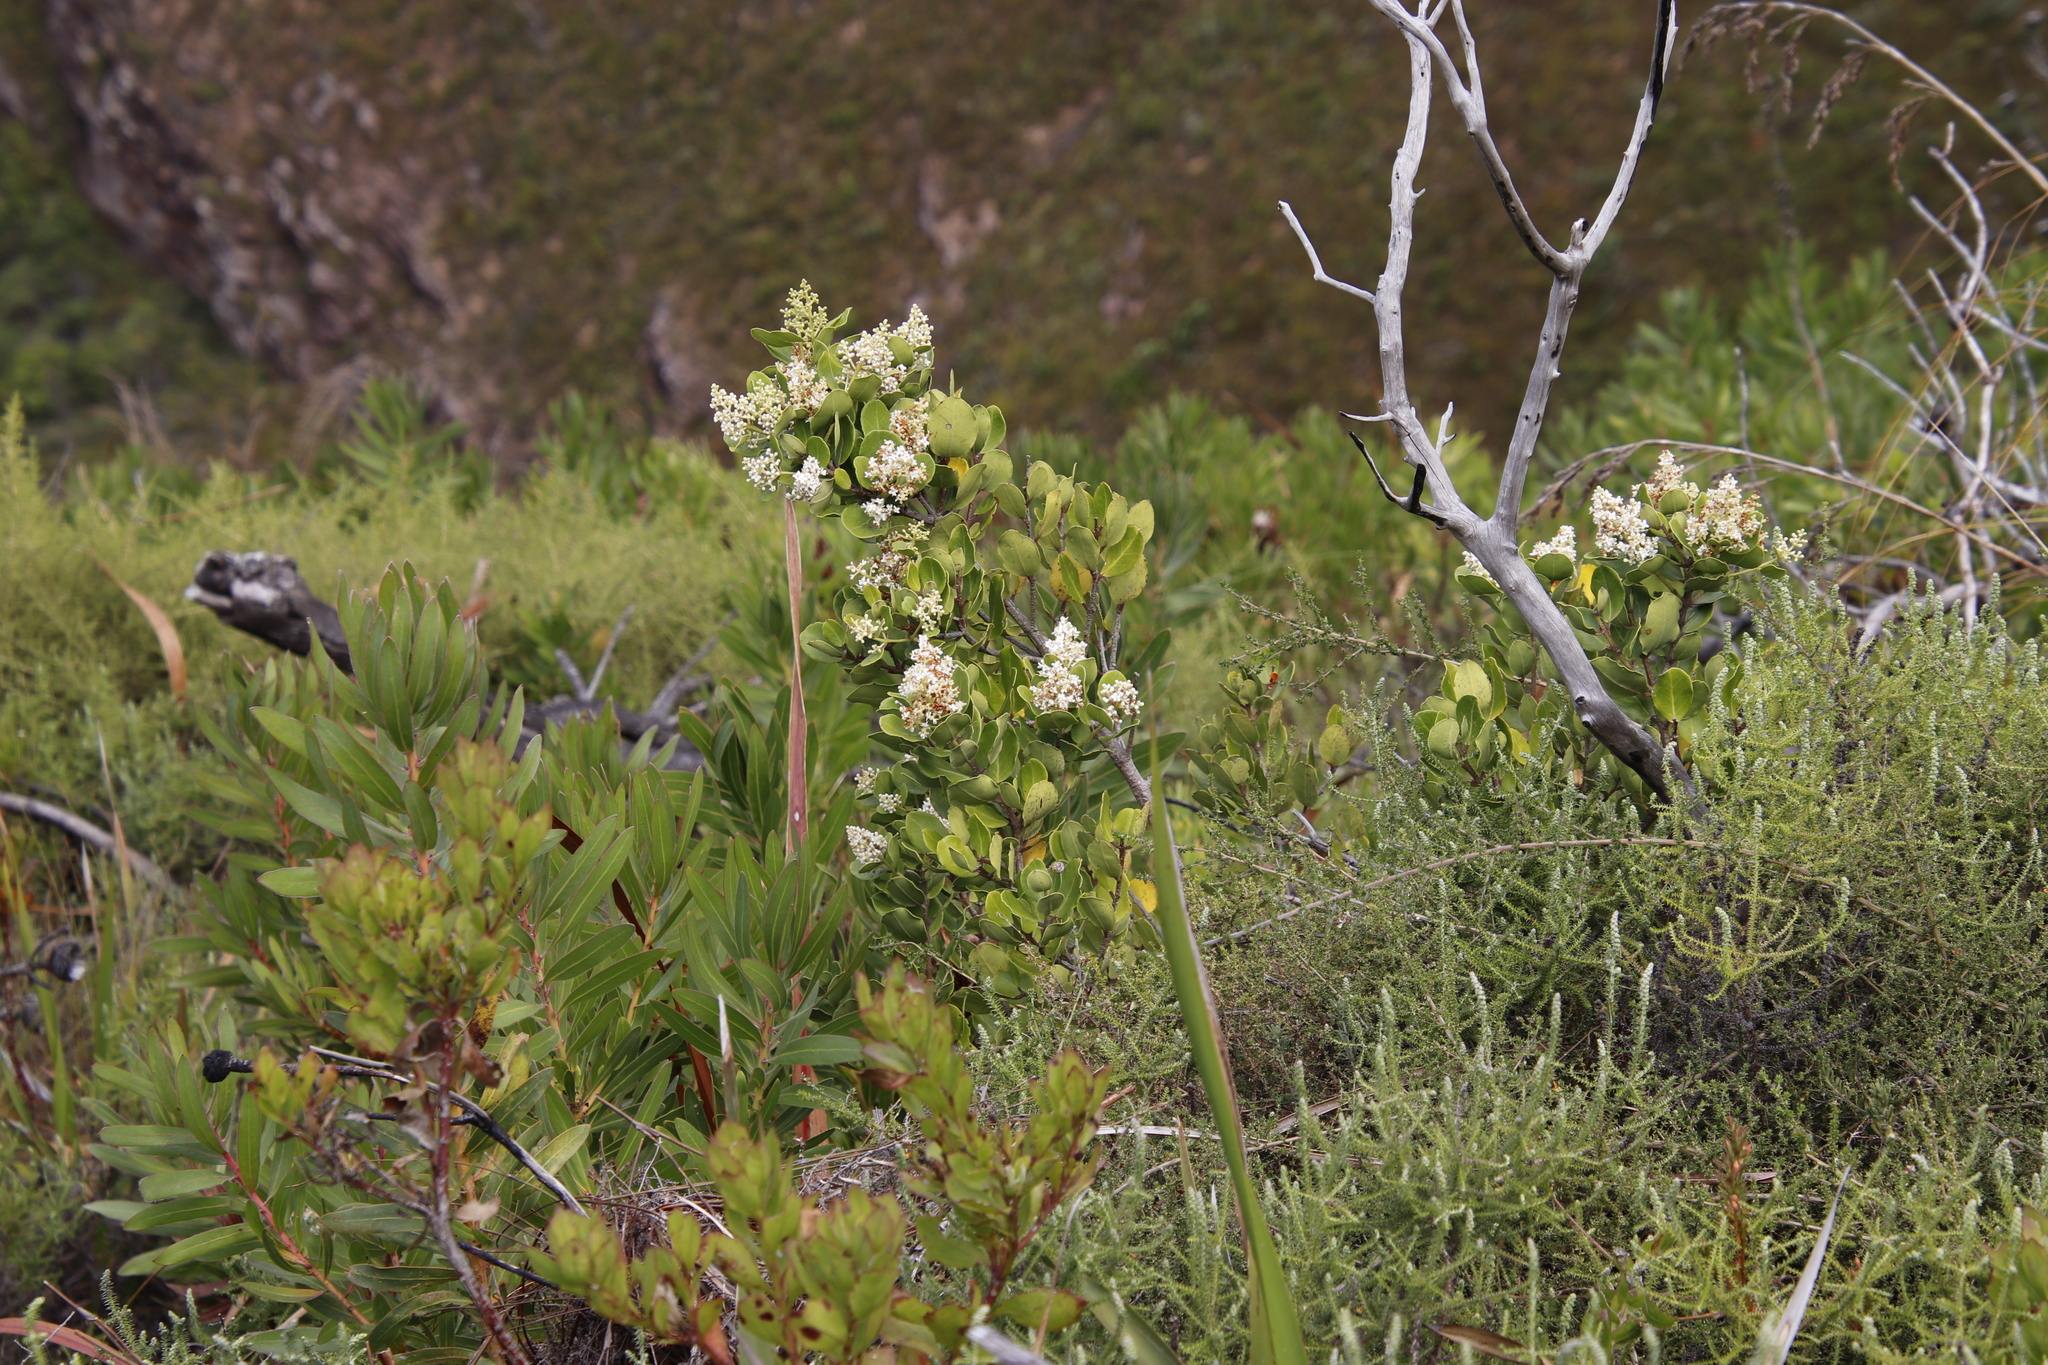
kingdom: Plantae
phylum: Tracheophyta
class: Magnoliopsida
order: Lamiales
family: Oleaceae
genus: Olea
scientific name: Olea capensis
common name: Black ironwood
